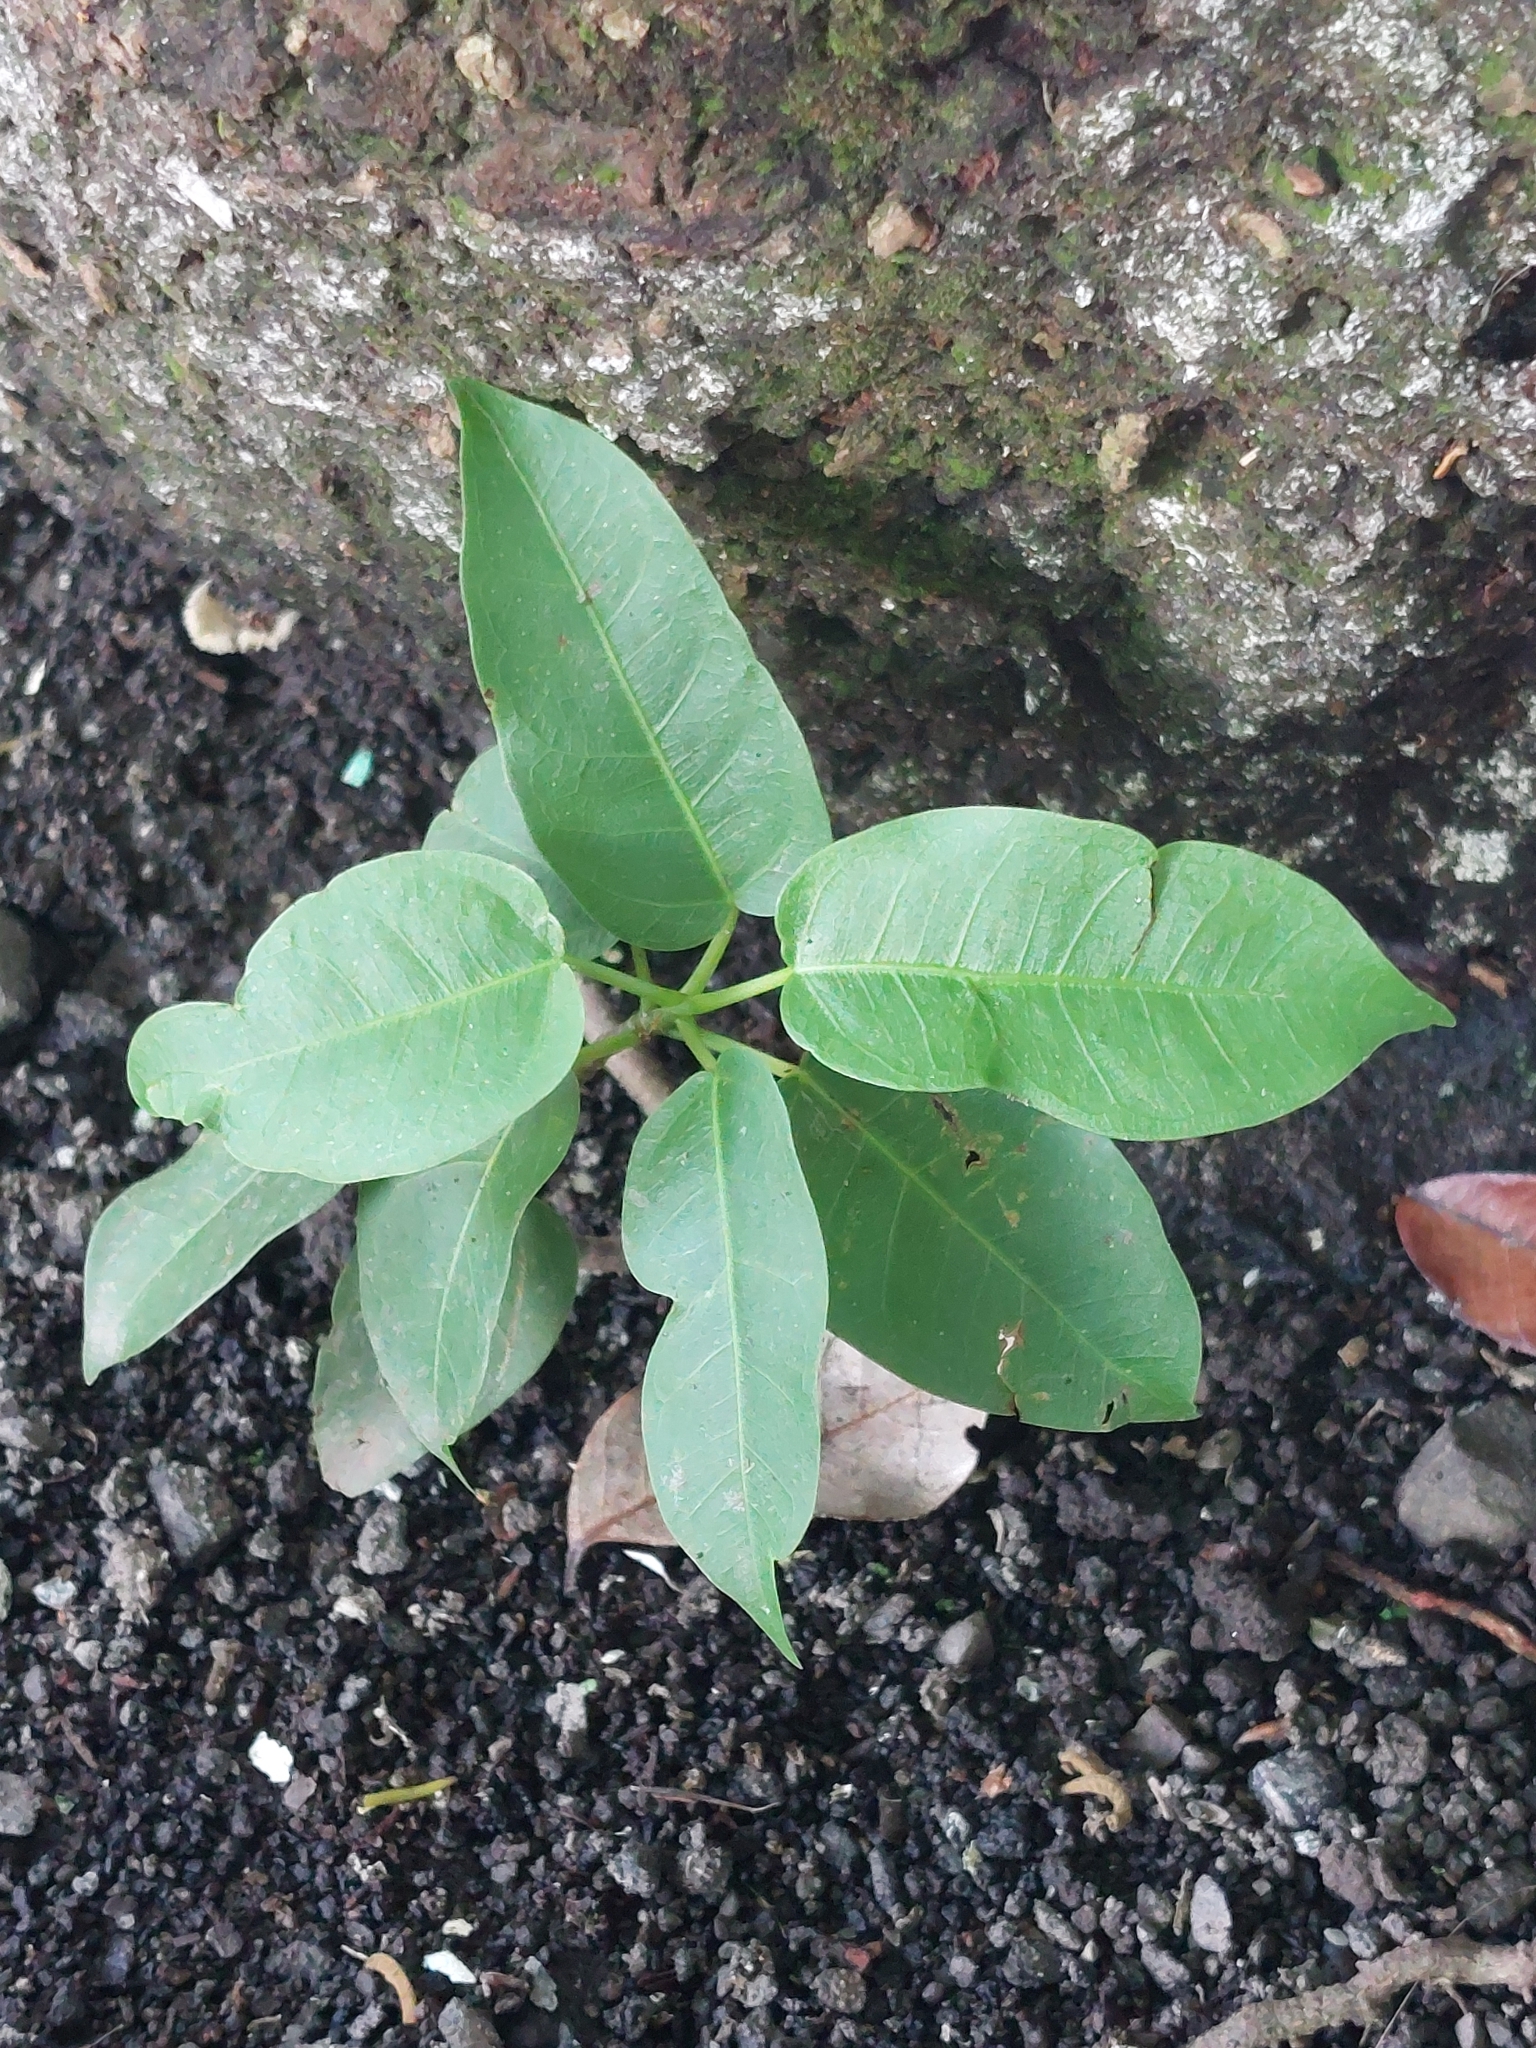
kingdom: Plantae
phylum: Tracheophyta
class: Magnoliopsida
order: Rosales
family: Moraceae
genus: Ficus
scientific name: Ficus subpisocarpa
